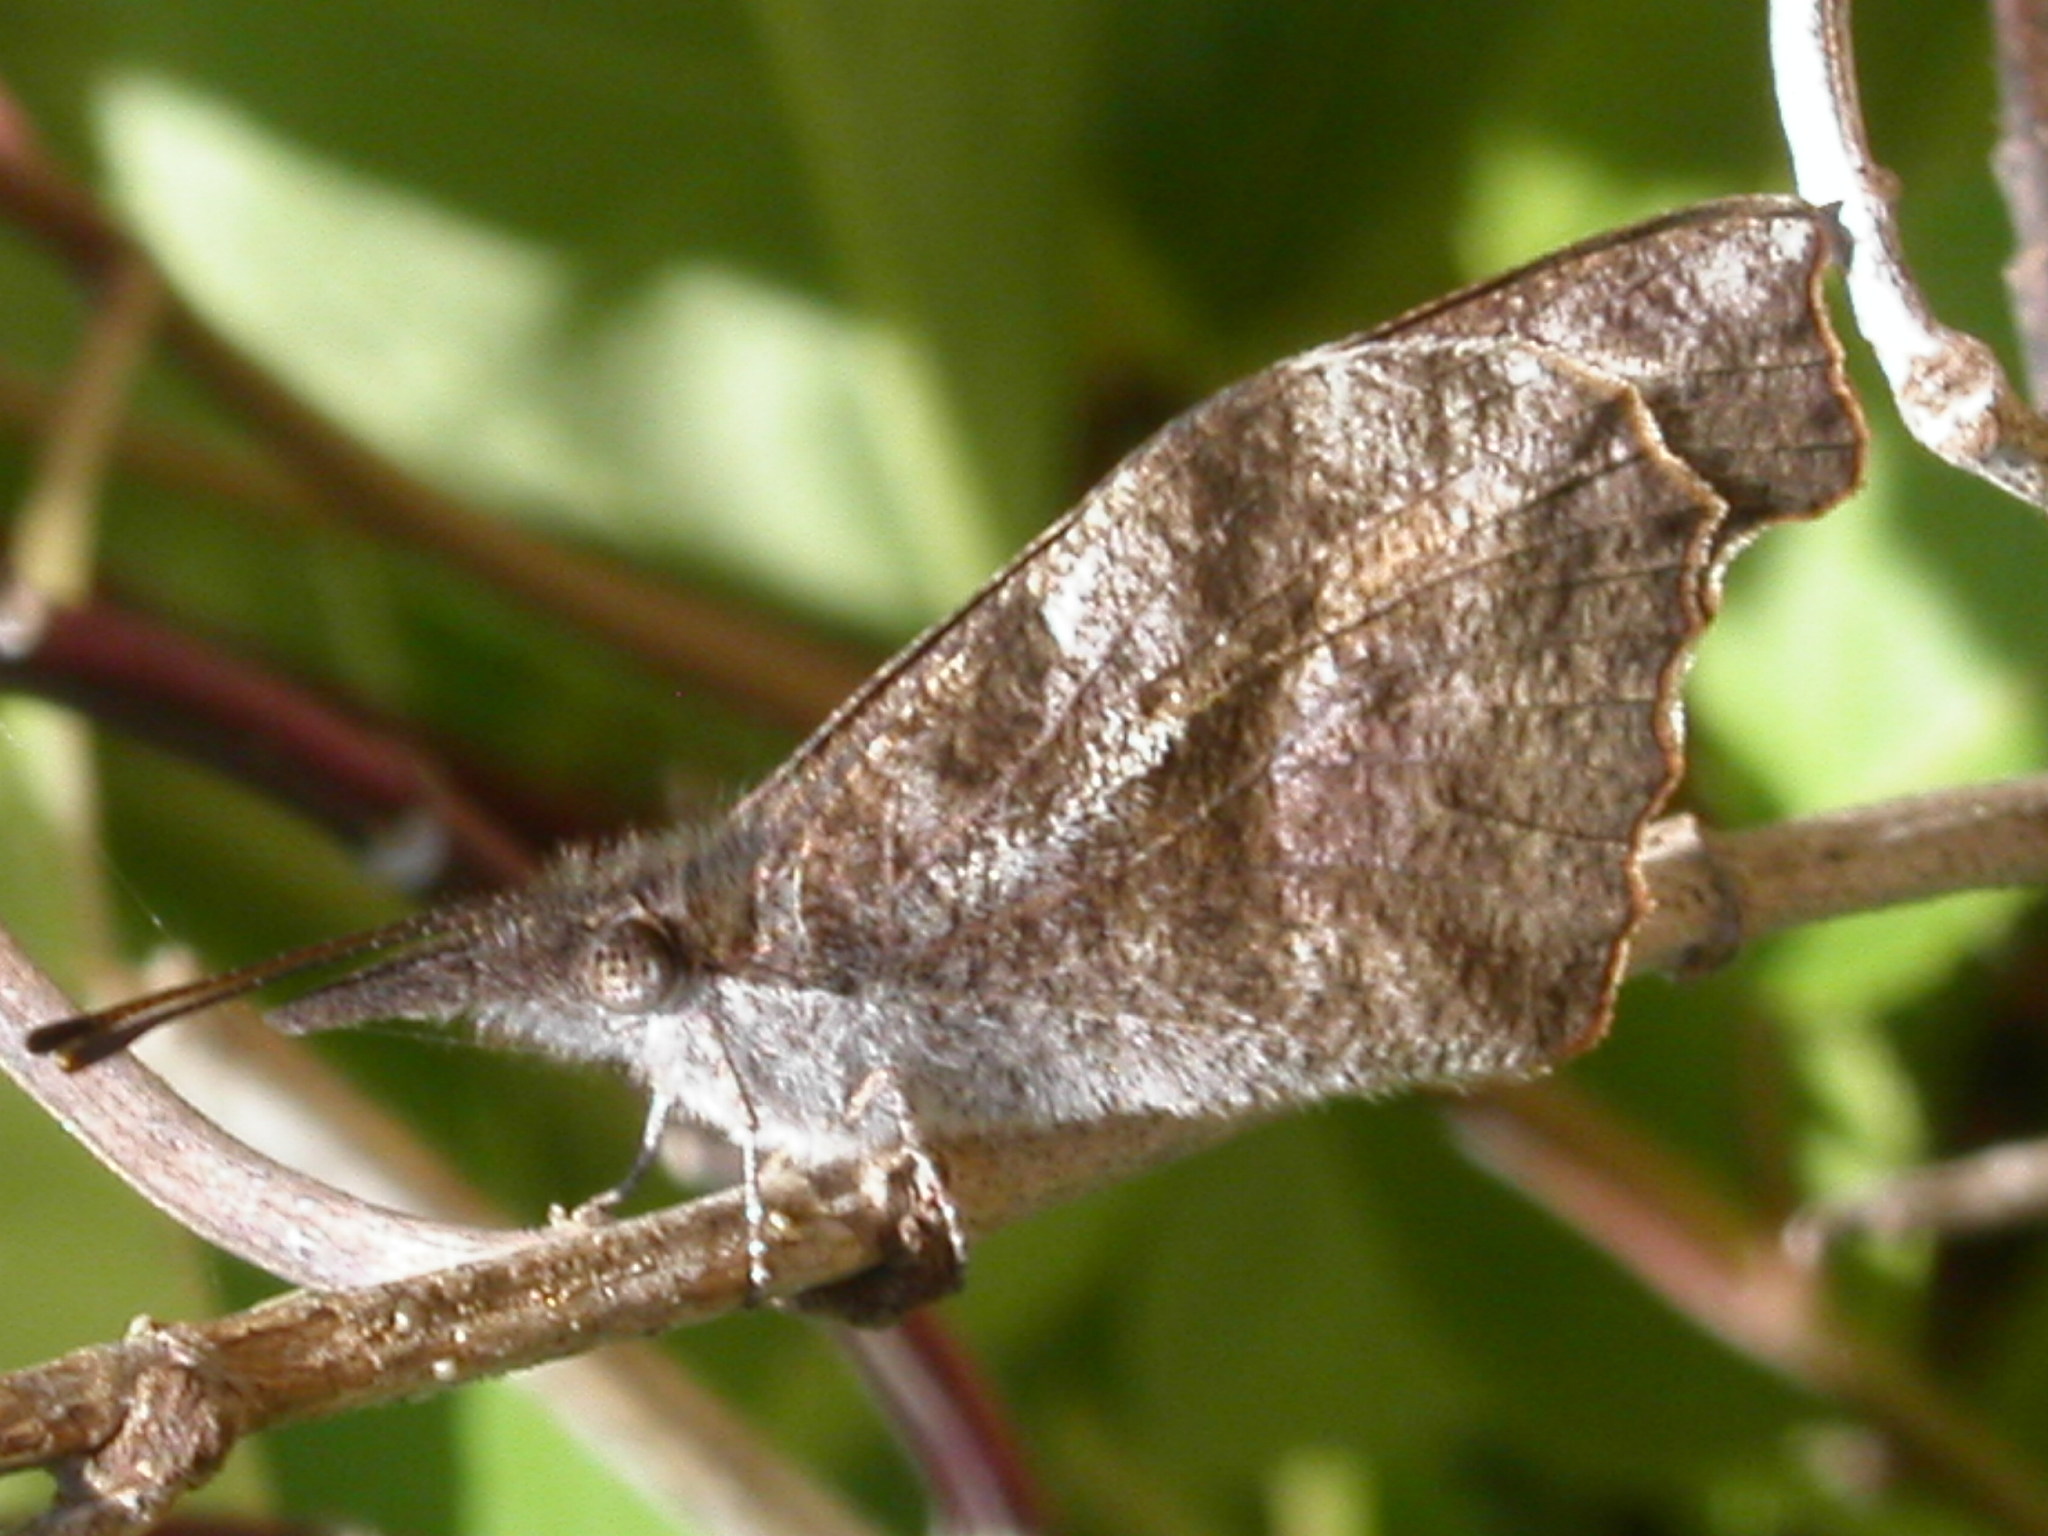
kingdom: Animalia
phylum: Arthropoda
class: Insecta
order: Lepidoptera
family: Nymphalidae
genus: Libytheana
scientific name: Libytheana carinenta
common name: American snout
